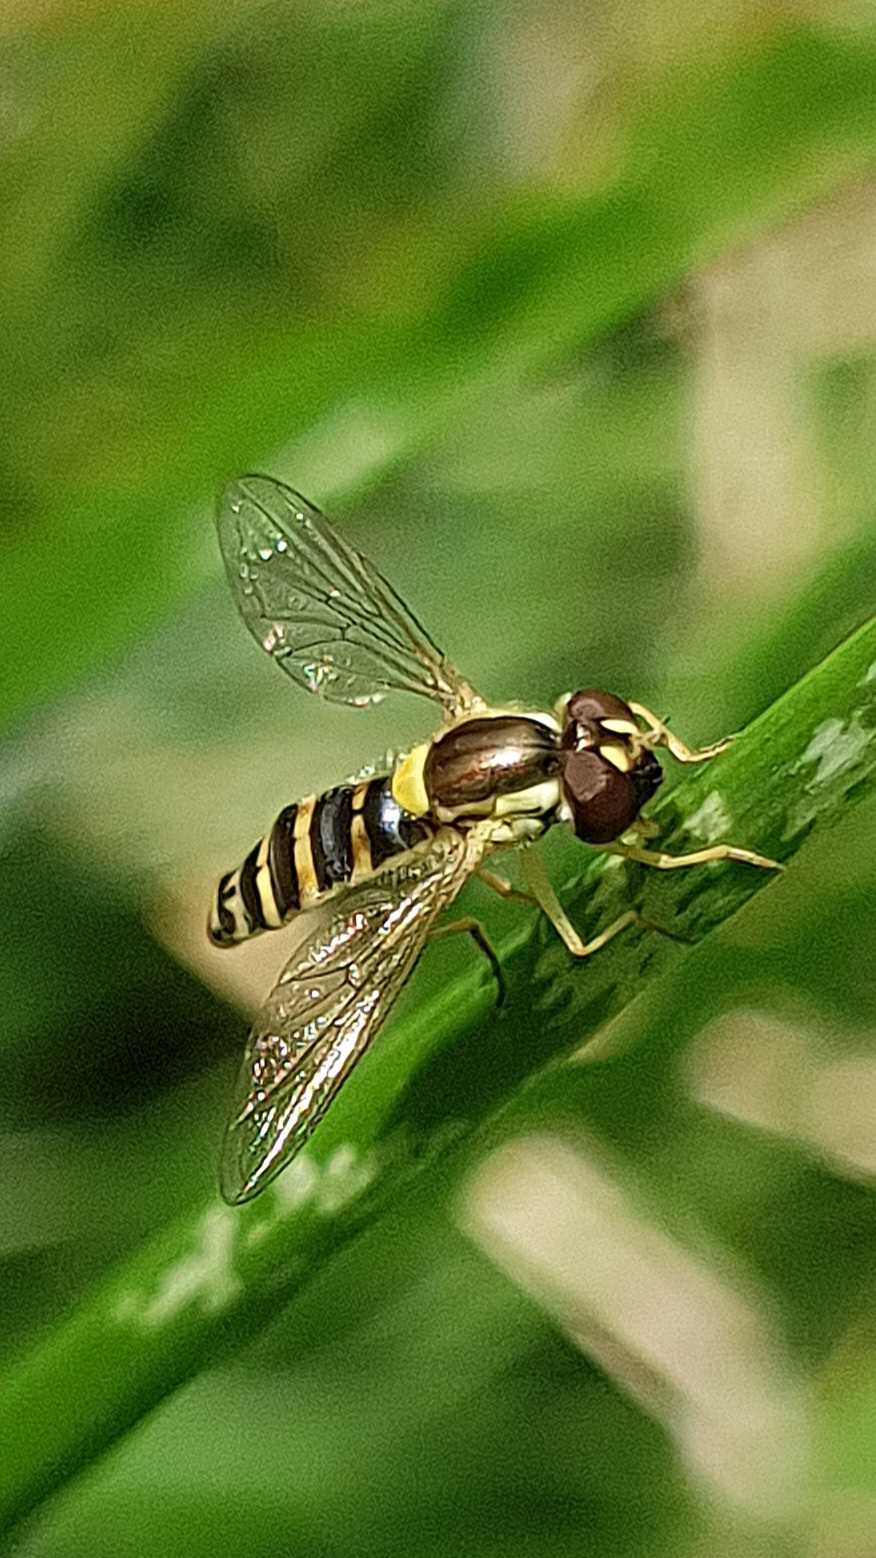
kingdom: Animalia
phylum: Arthropoda
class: Insecta
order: Diptera
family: Syrphidae
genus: Sphaerophoria
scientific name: Sphaerophoria
